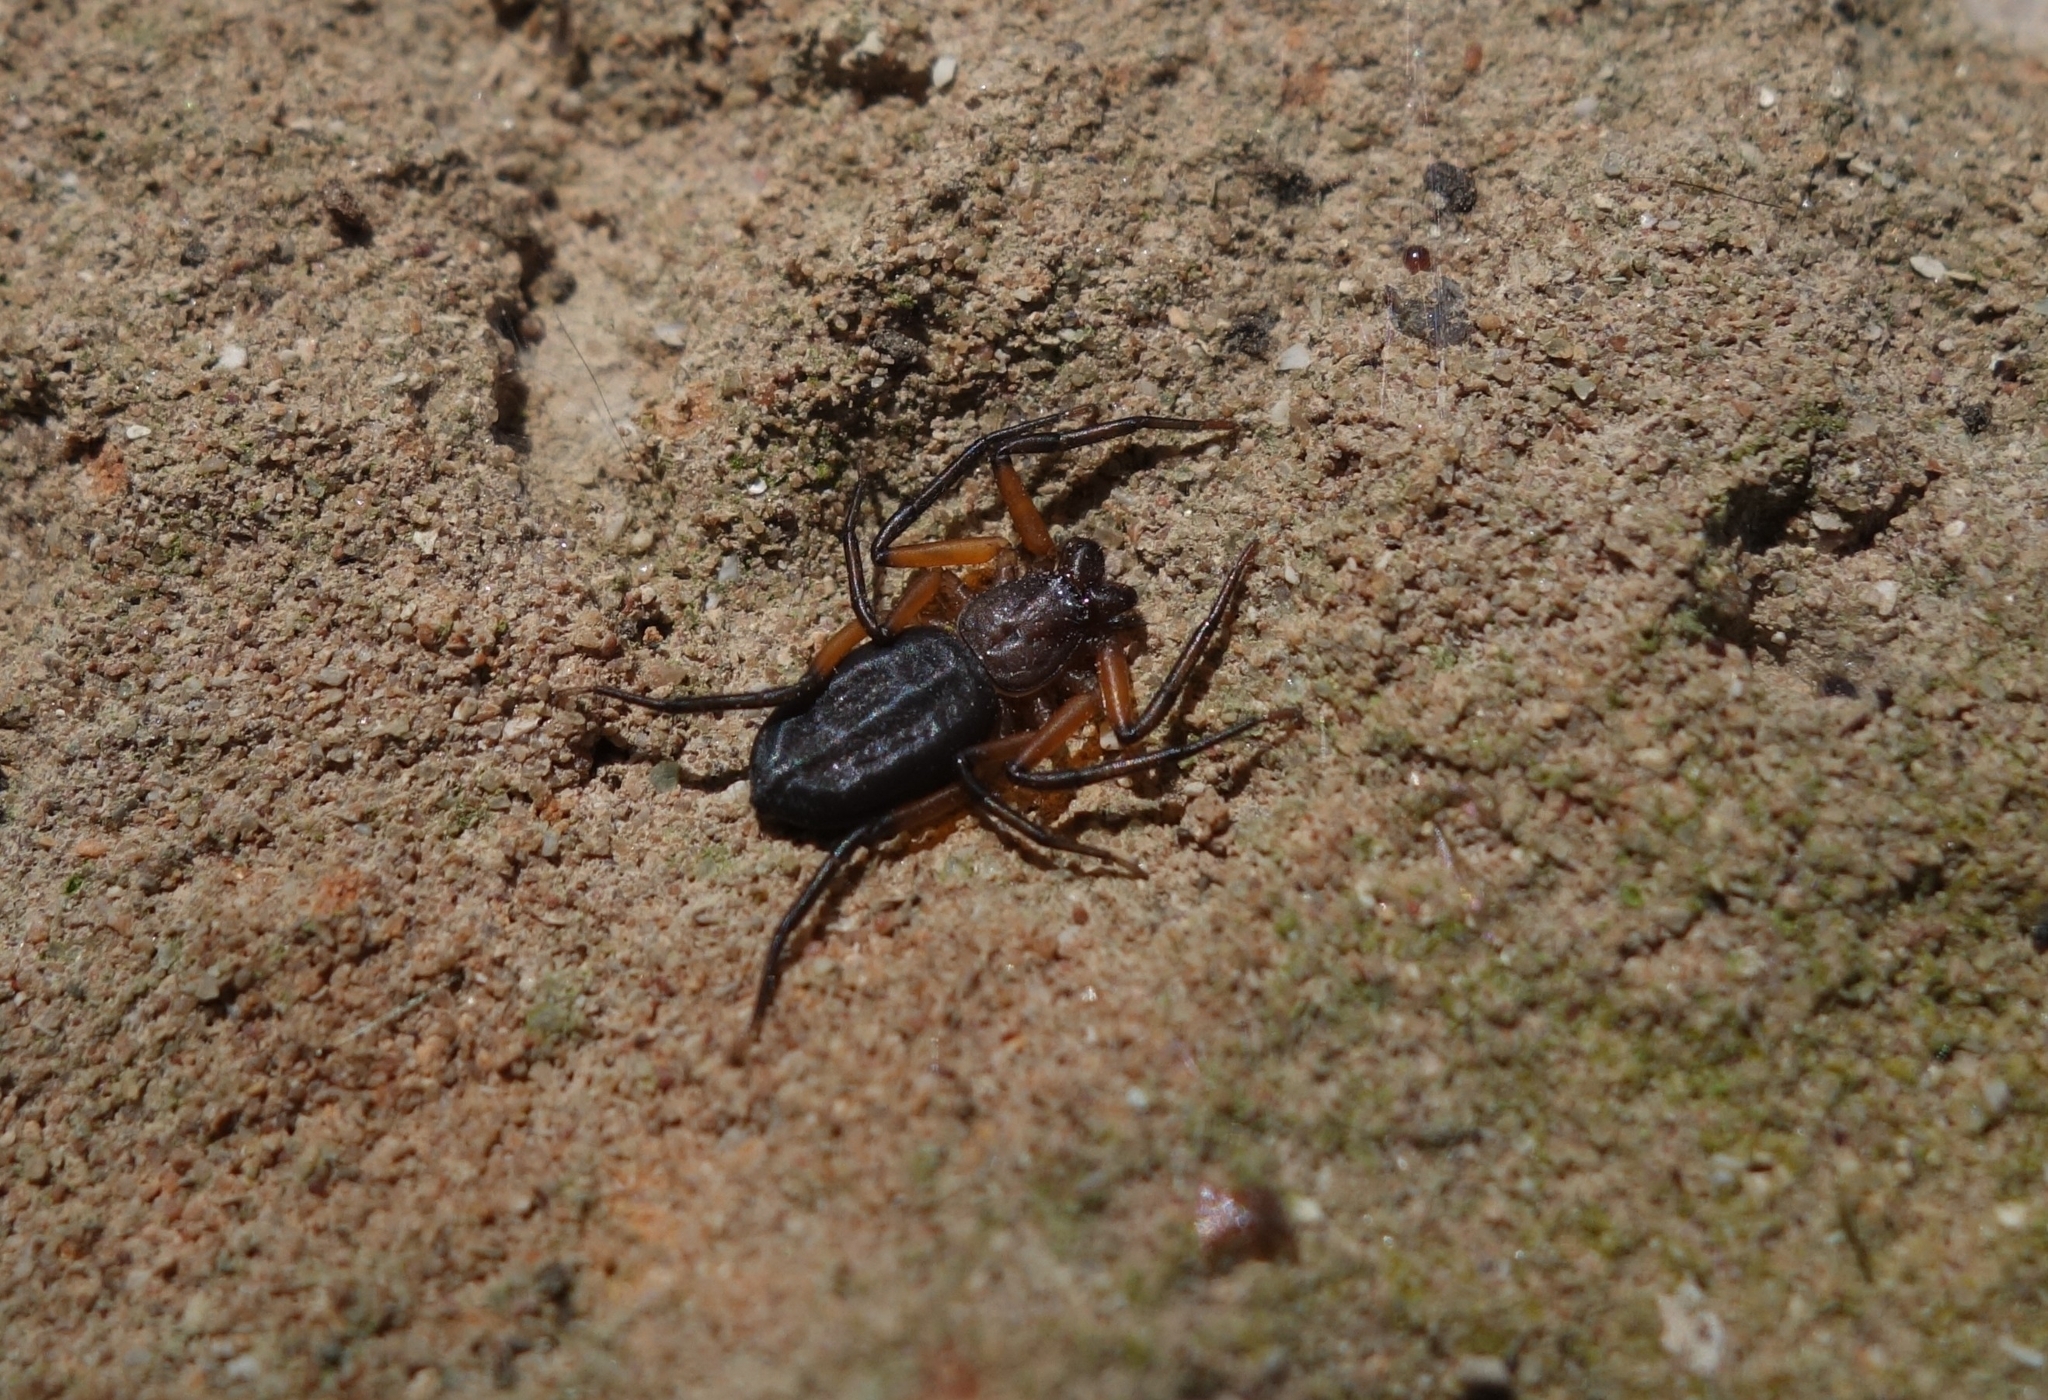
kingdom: Animalia
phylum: Arthropoda
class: Arachnida
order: Araneae
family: Trochanteriidae
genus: Platyoides
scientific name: Platyoides walteri
